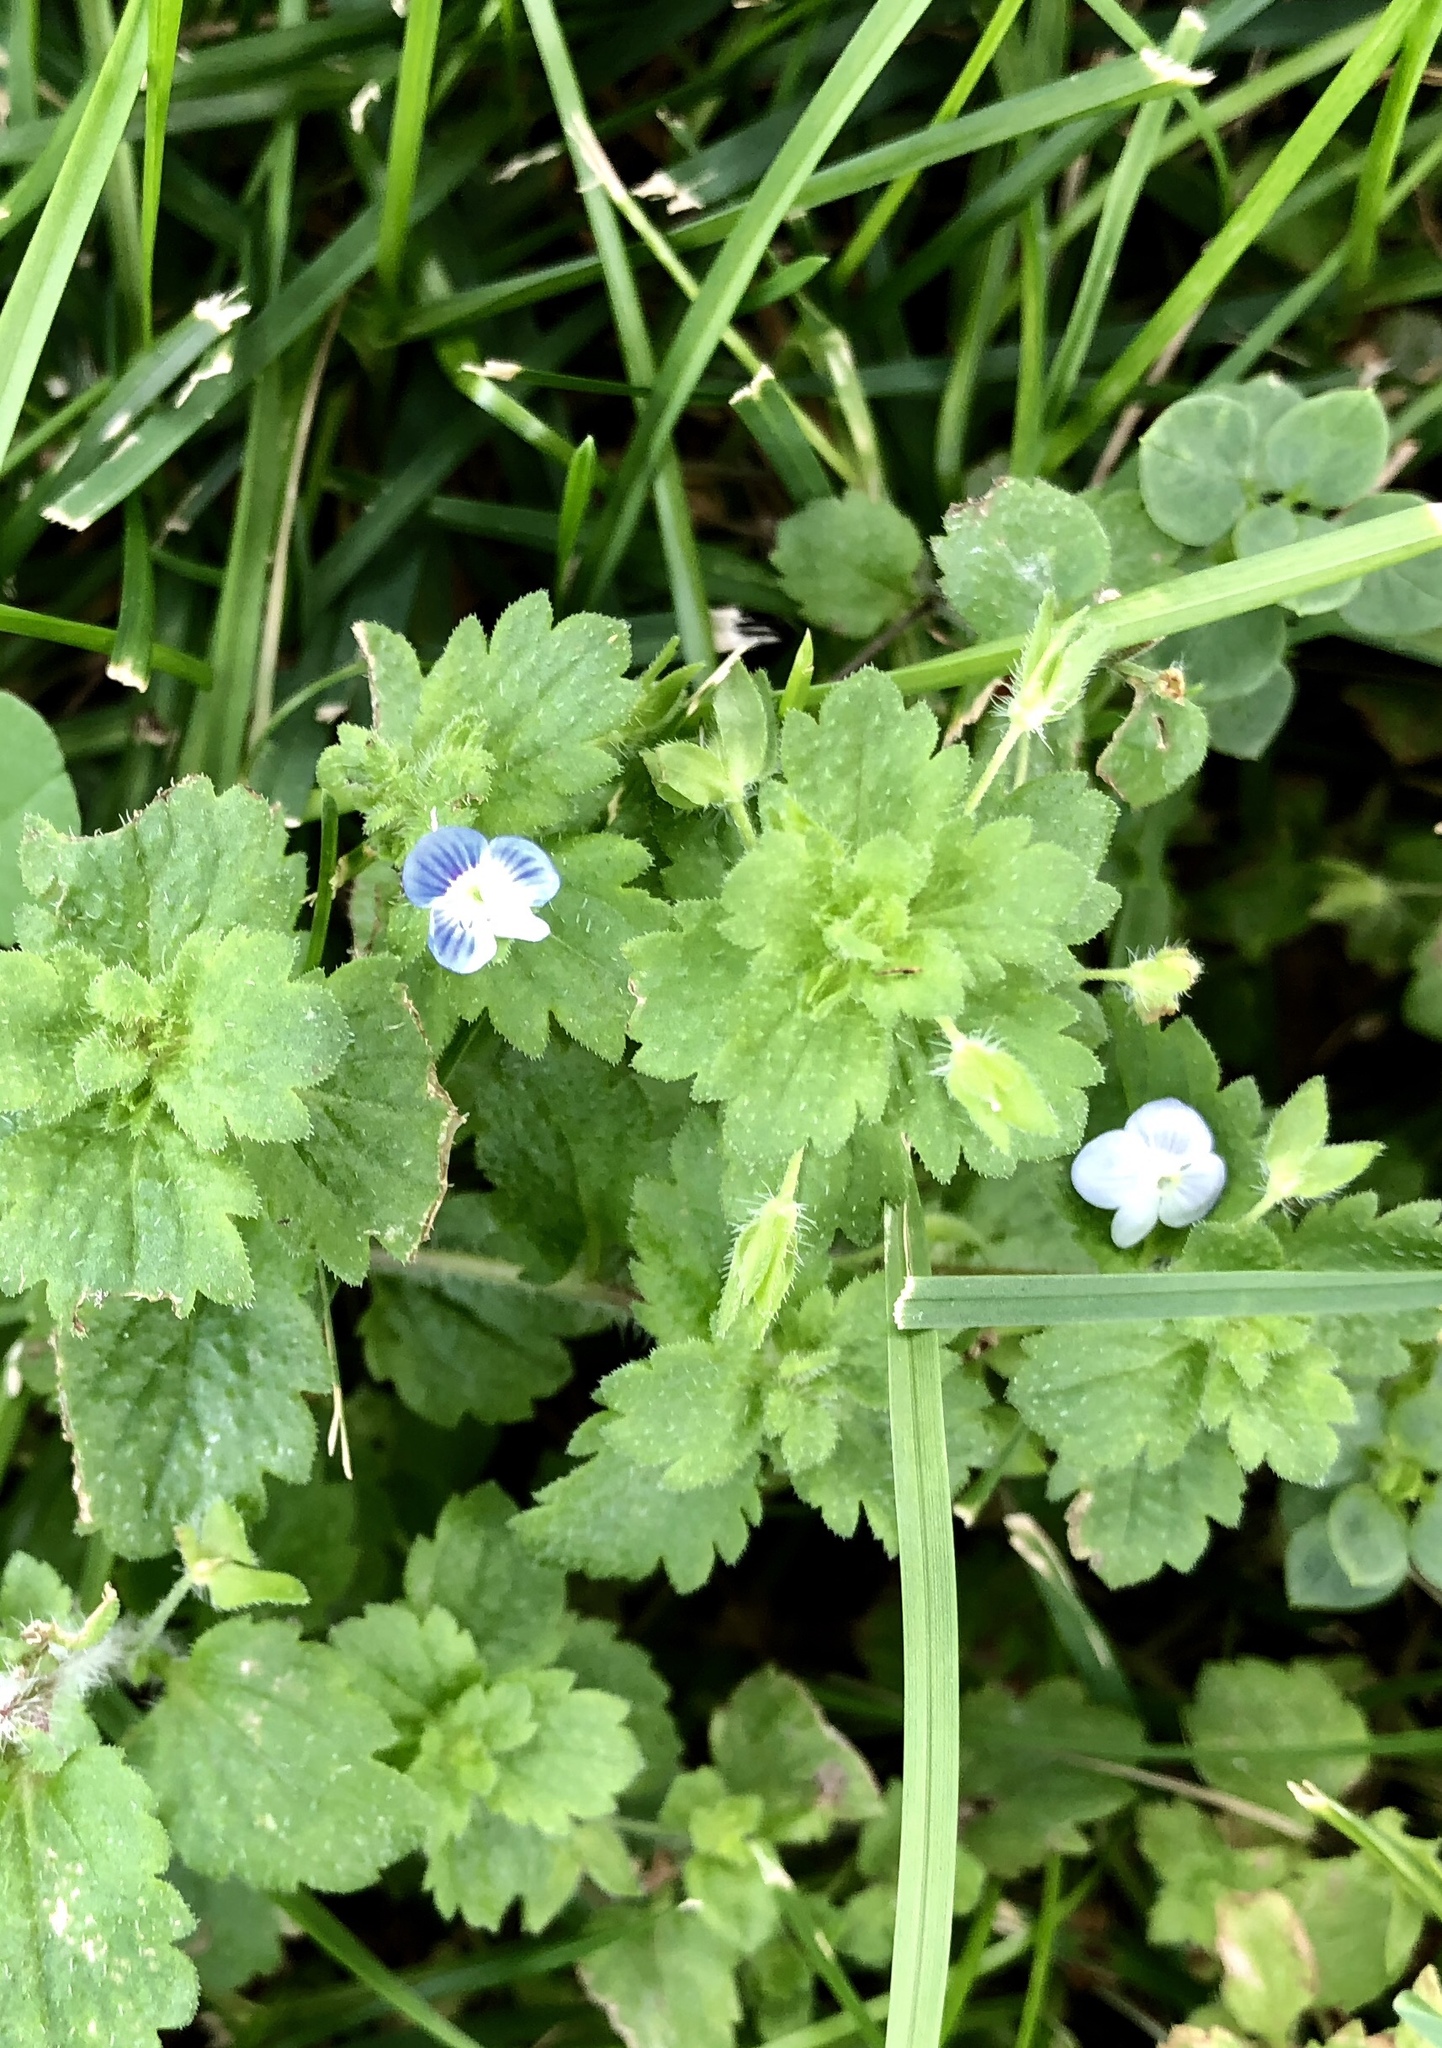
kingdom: Plantae
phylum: Tracheophyta
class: Magnoliopsida
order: Lamiales
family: Plantaginaceae
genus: Veronica
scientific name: Veronica persica
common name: Common field-speedwell
